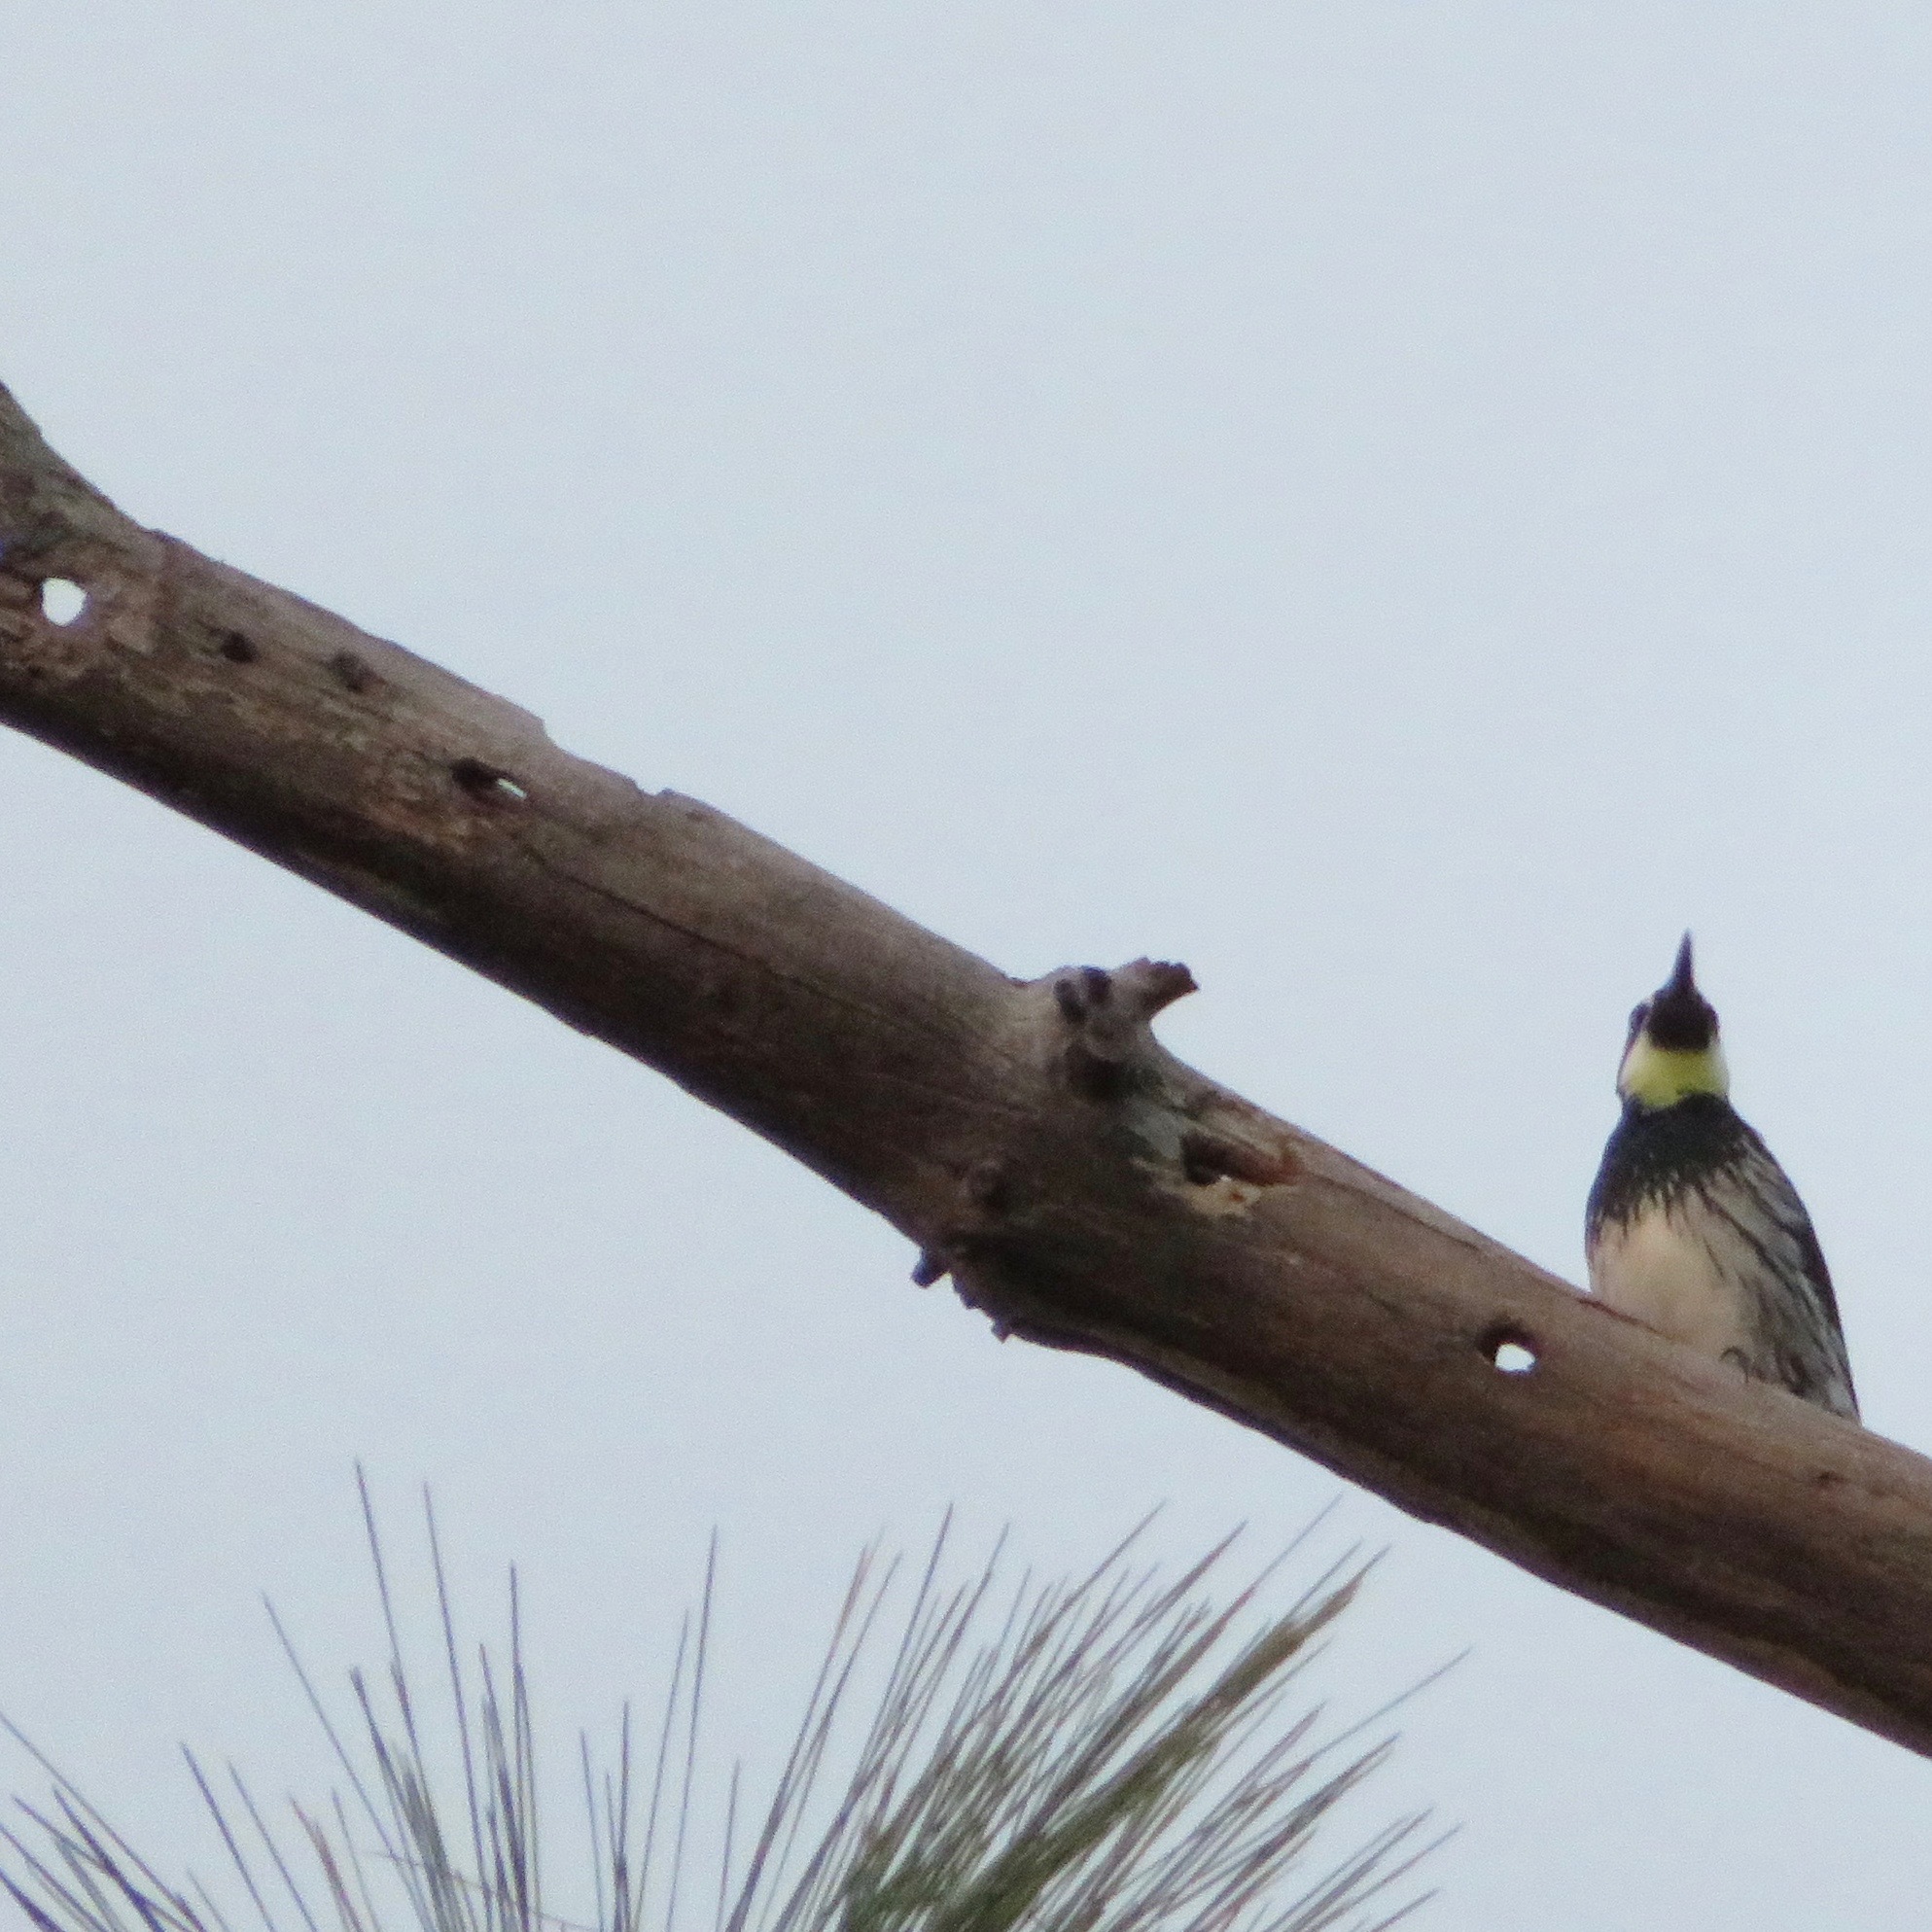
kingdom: Animalia
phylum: Chordata
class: Aves
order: Piciformes
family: Picidae
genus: Melanerpes
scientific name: Melanerpes formicivorus
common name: Acorn woodpecker
